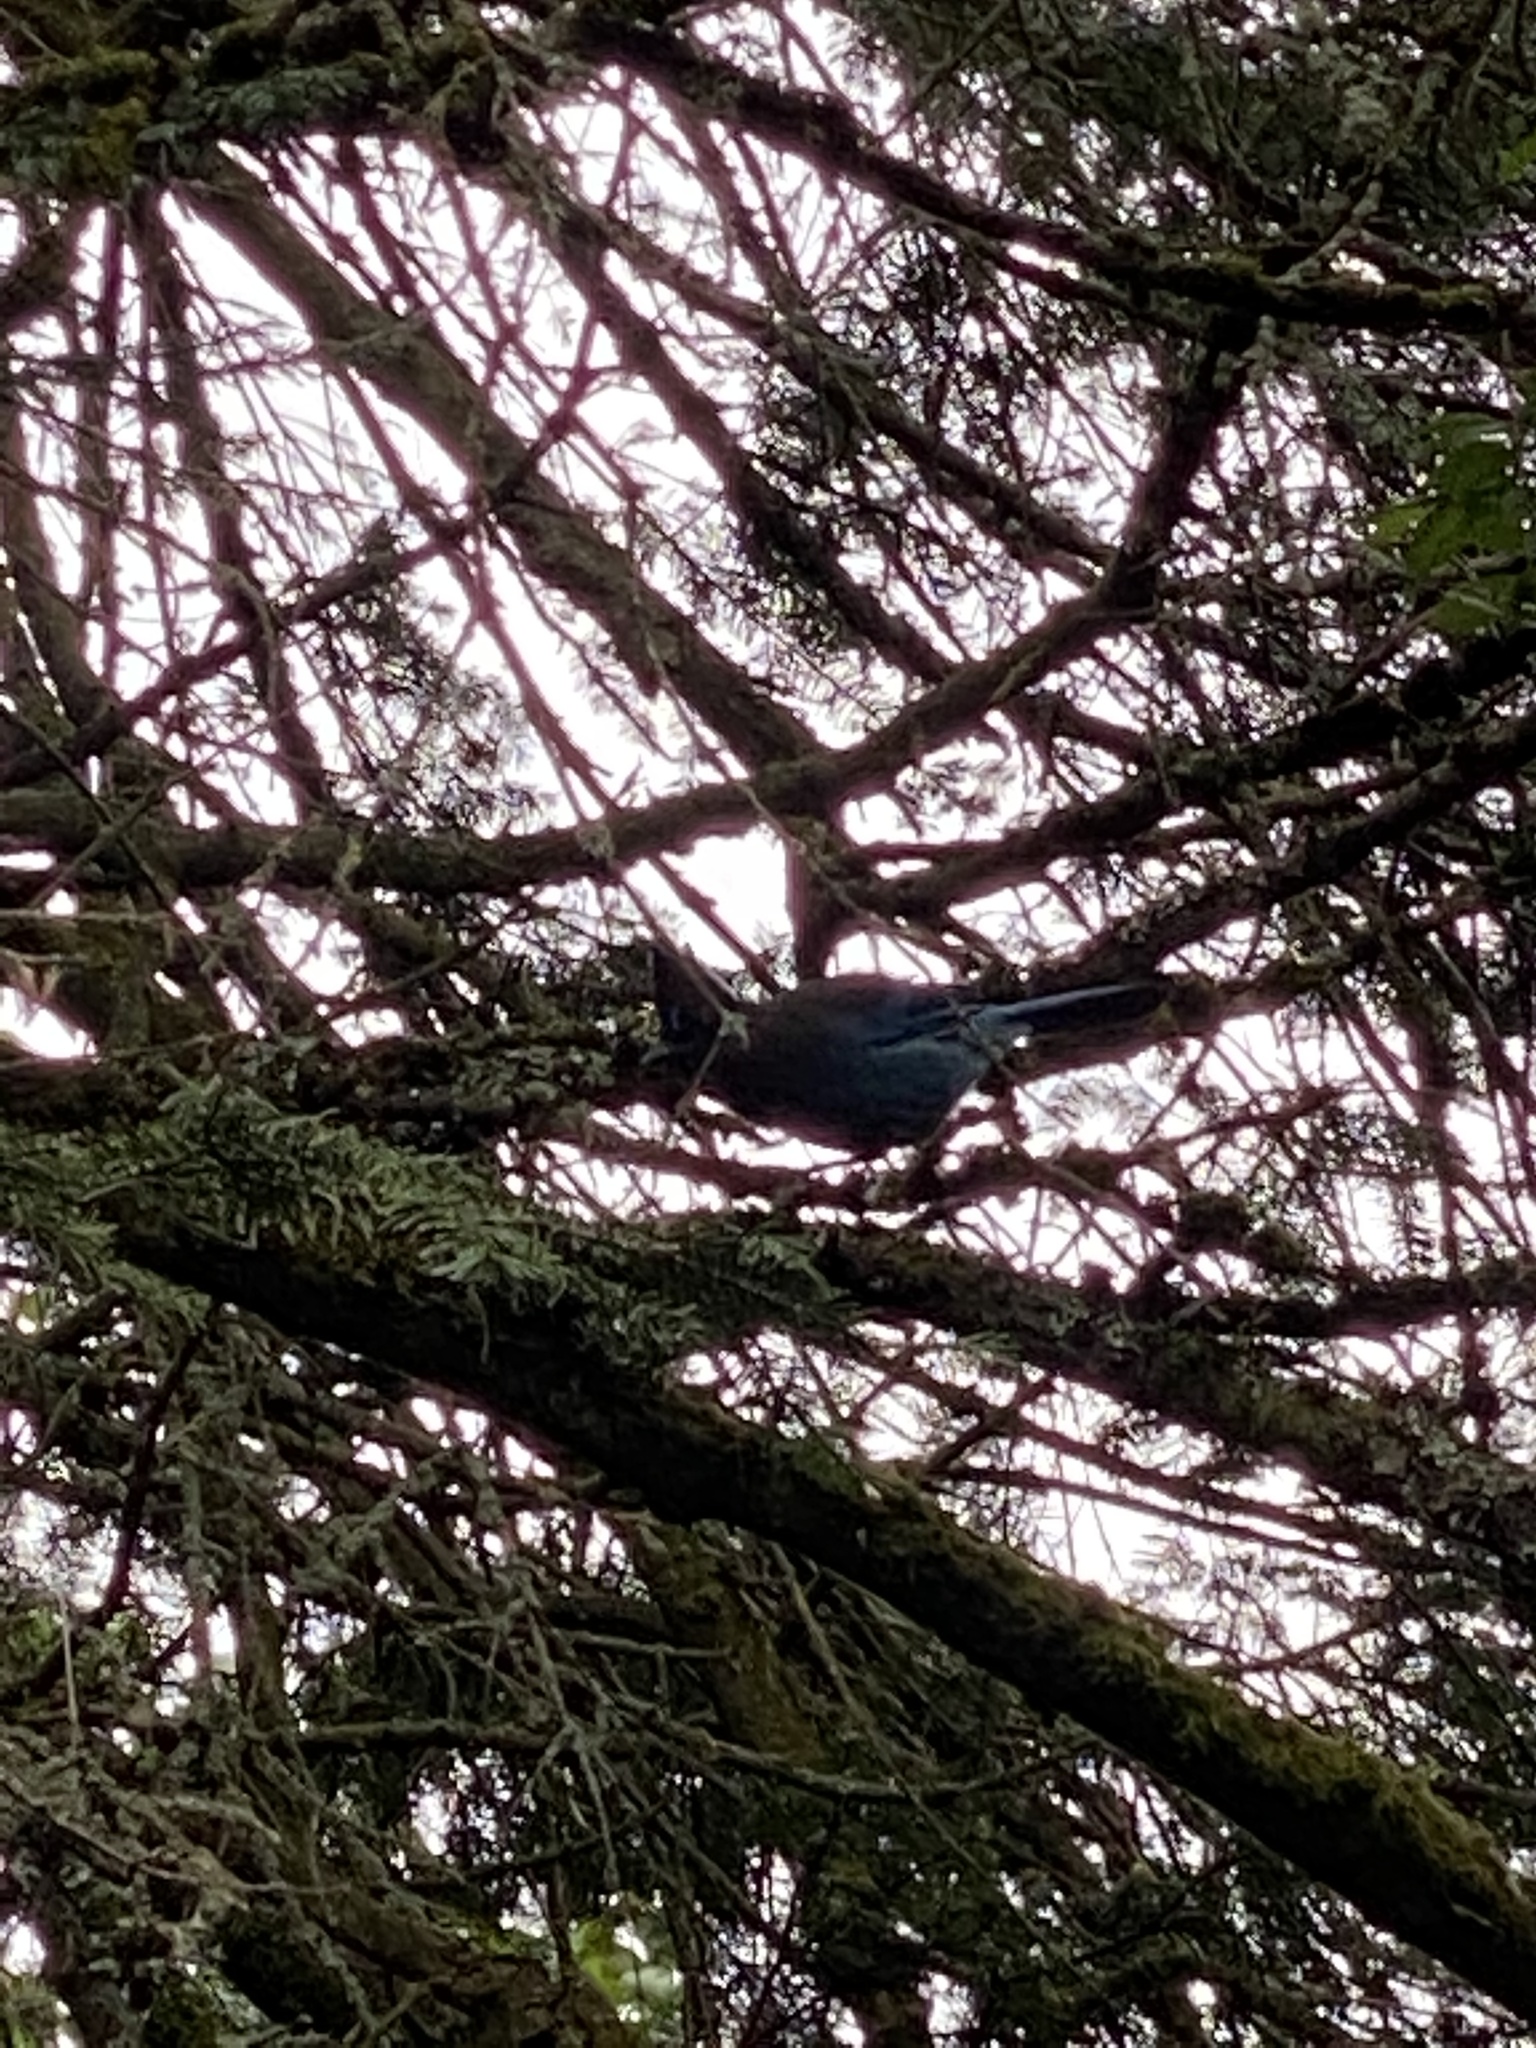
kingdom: Animalia
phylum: Chordata
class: Aves
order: Passeriformes
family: Corvidae
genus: Cyanocitta
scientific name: Cyanocitta stelleri
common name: Steller's jay
